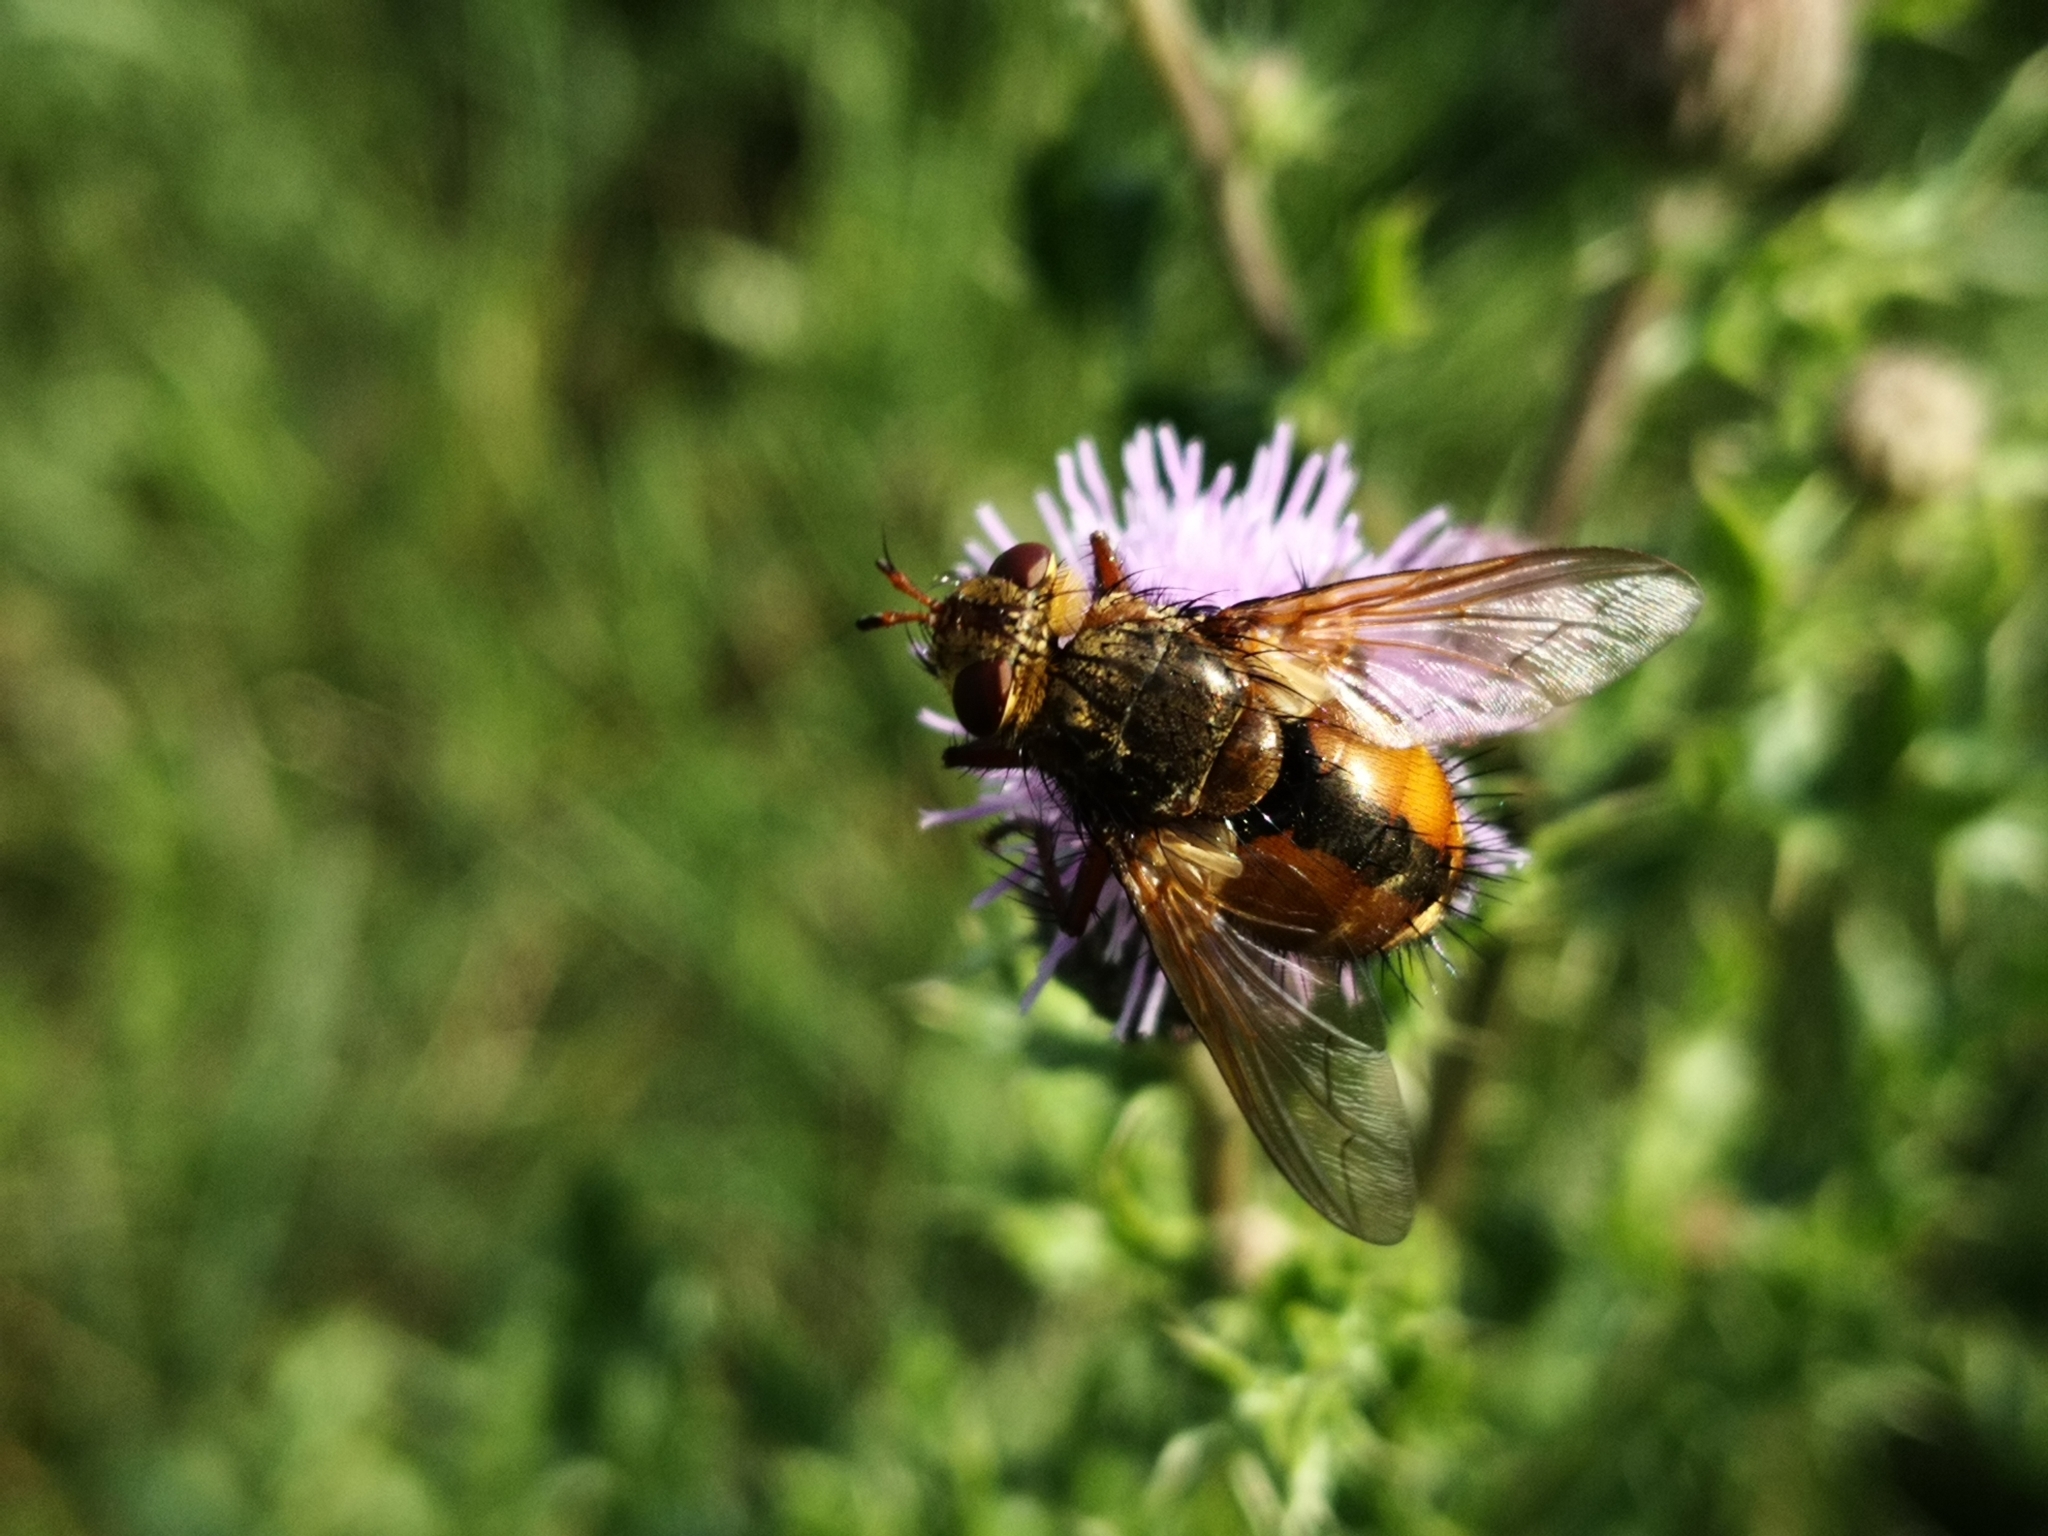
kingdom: Animalia
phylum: Arthropoda
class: Insecta
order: Diptera
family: Tachinidae
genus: Tachina
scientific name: Tachina fera
